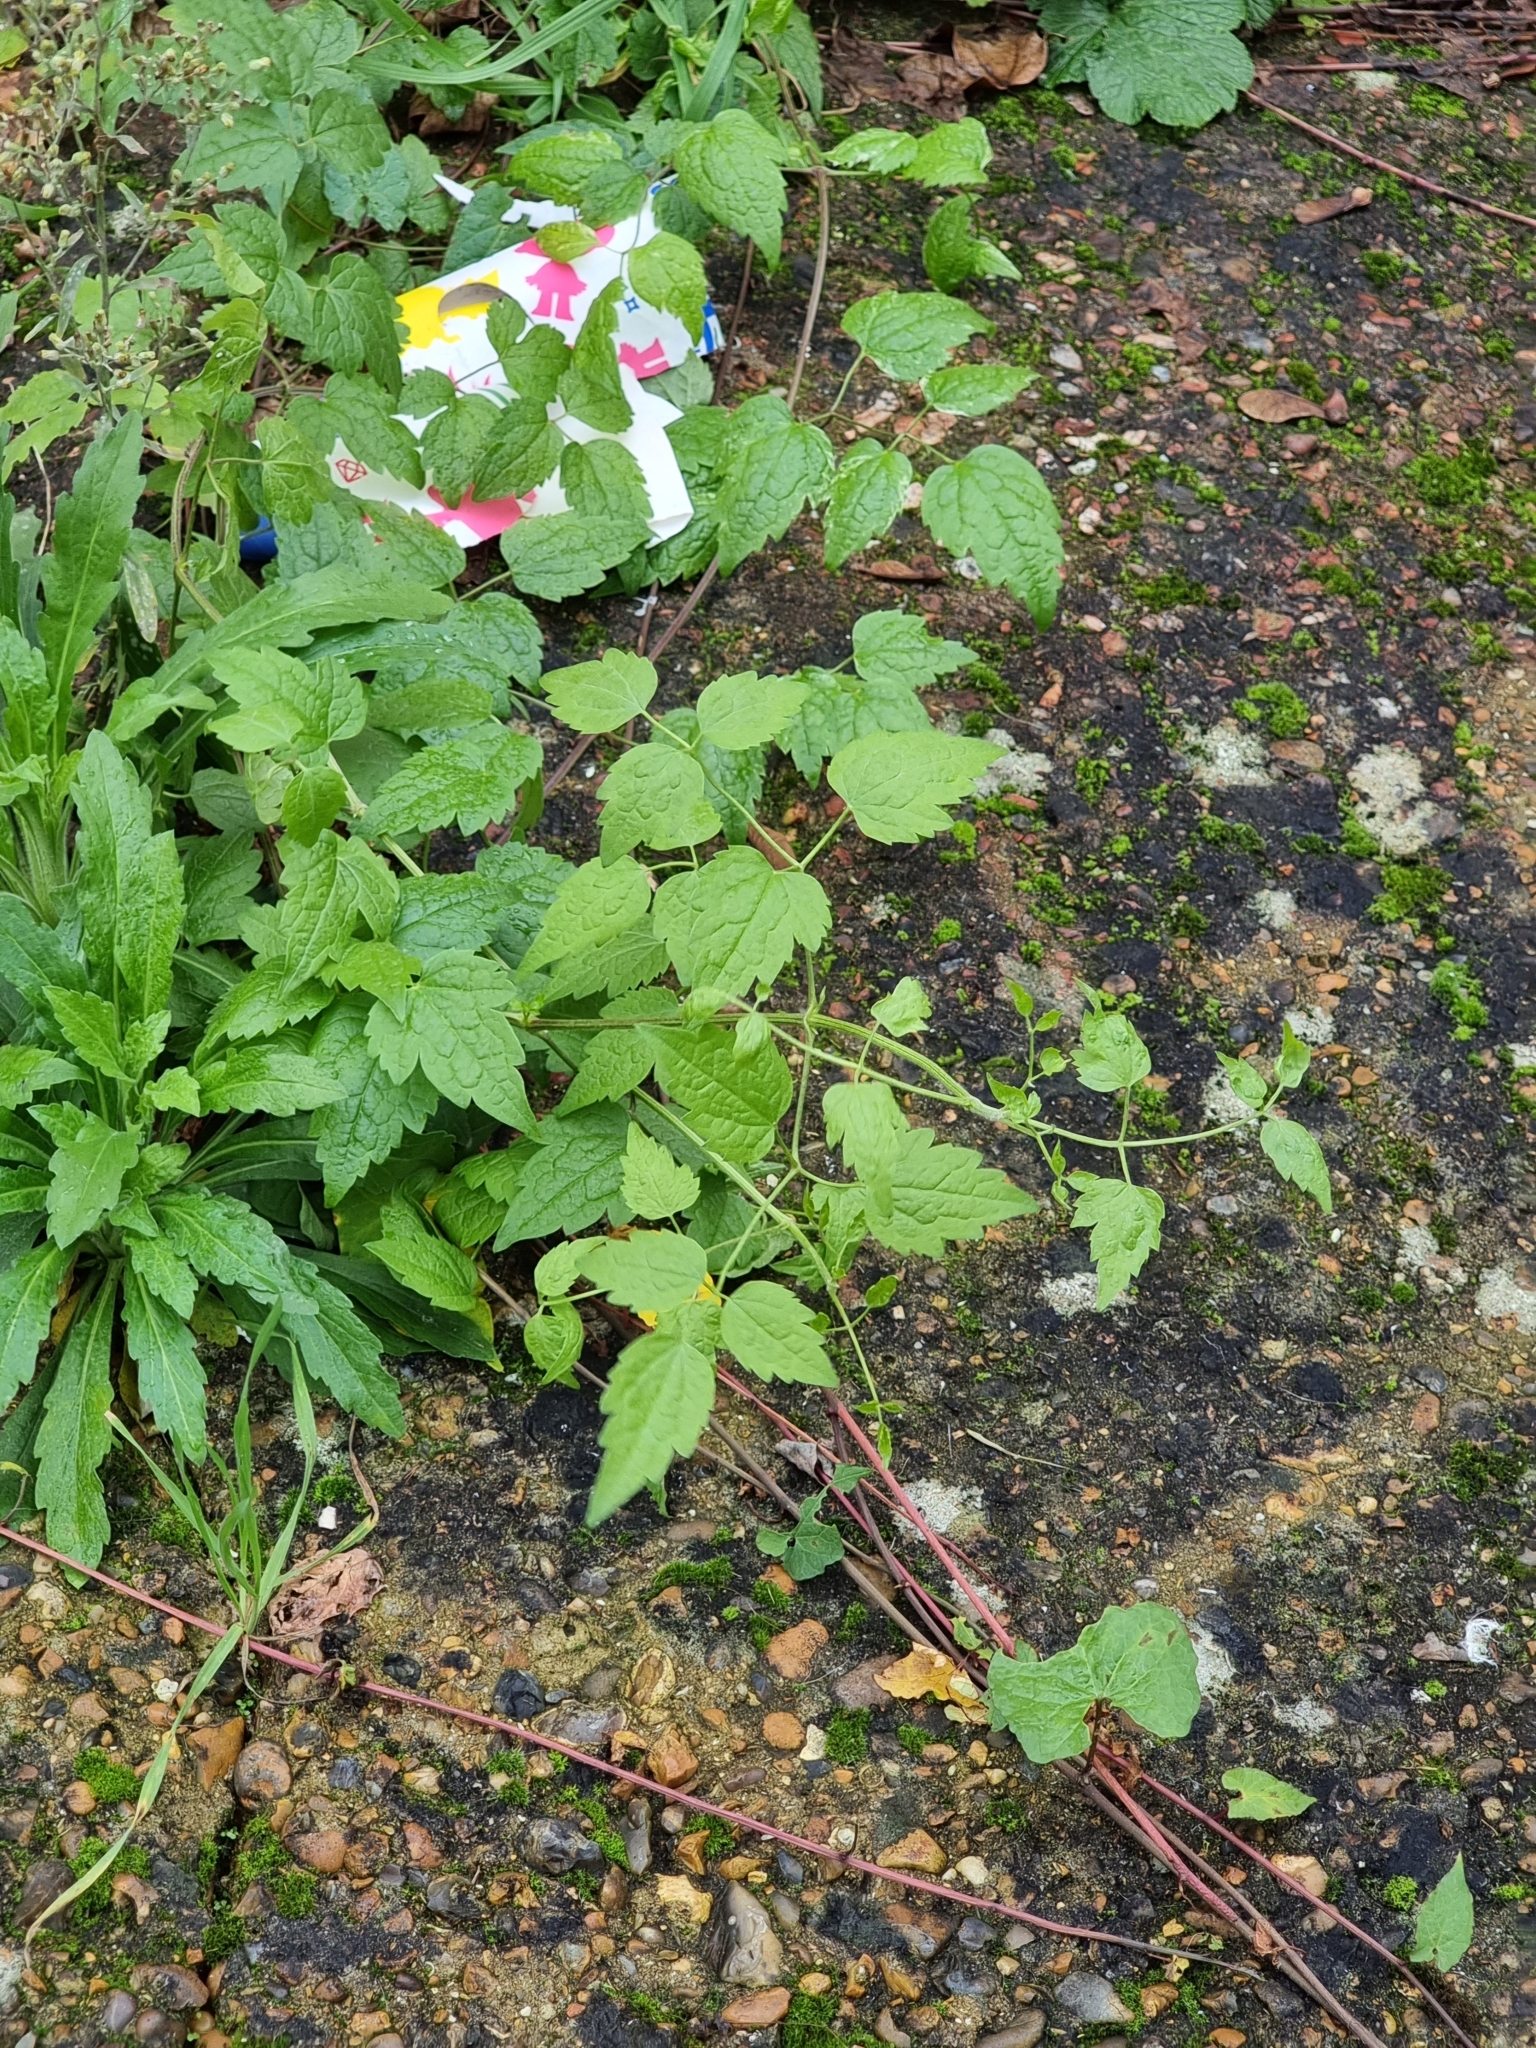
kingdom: Plantae
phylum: Tracheophyta
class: Magnoliopsida
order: Ranunculales
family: Ranunculaceae
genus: Clematis
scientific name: Clematis vitalba
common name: Evergreen clematis
